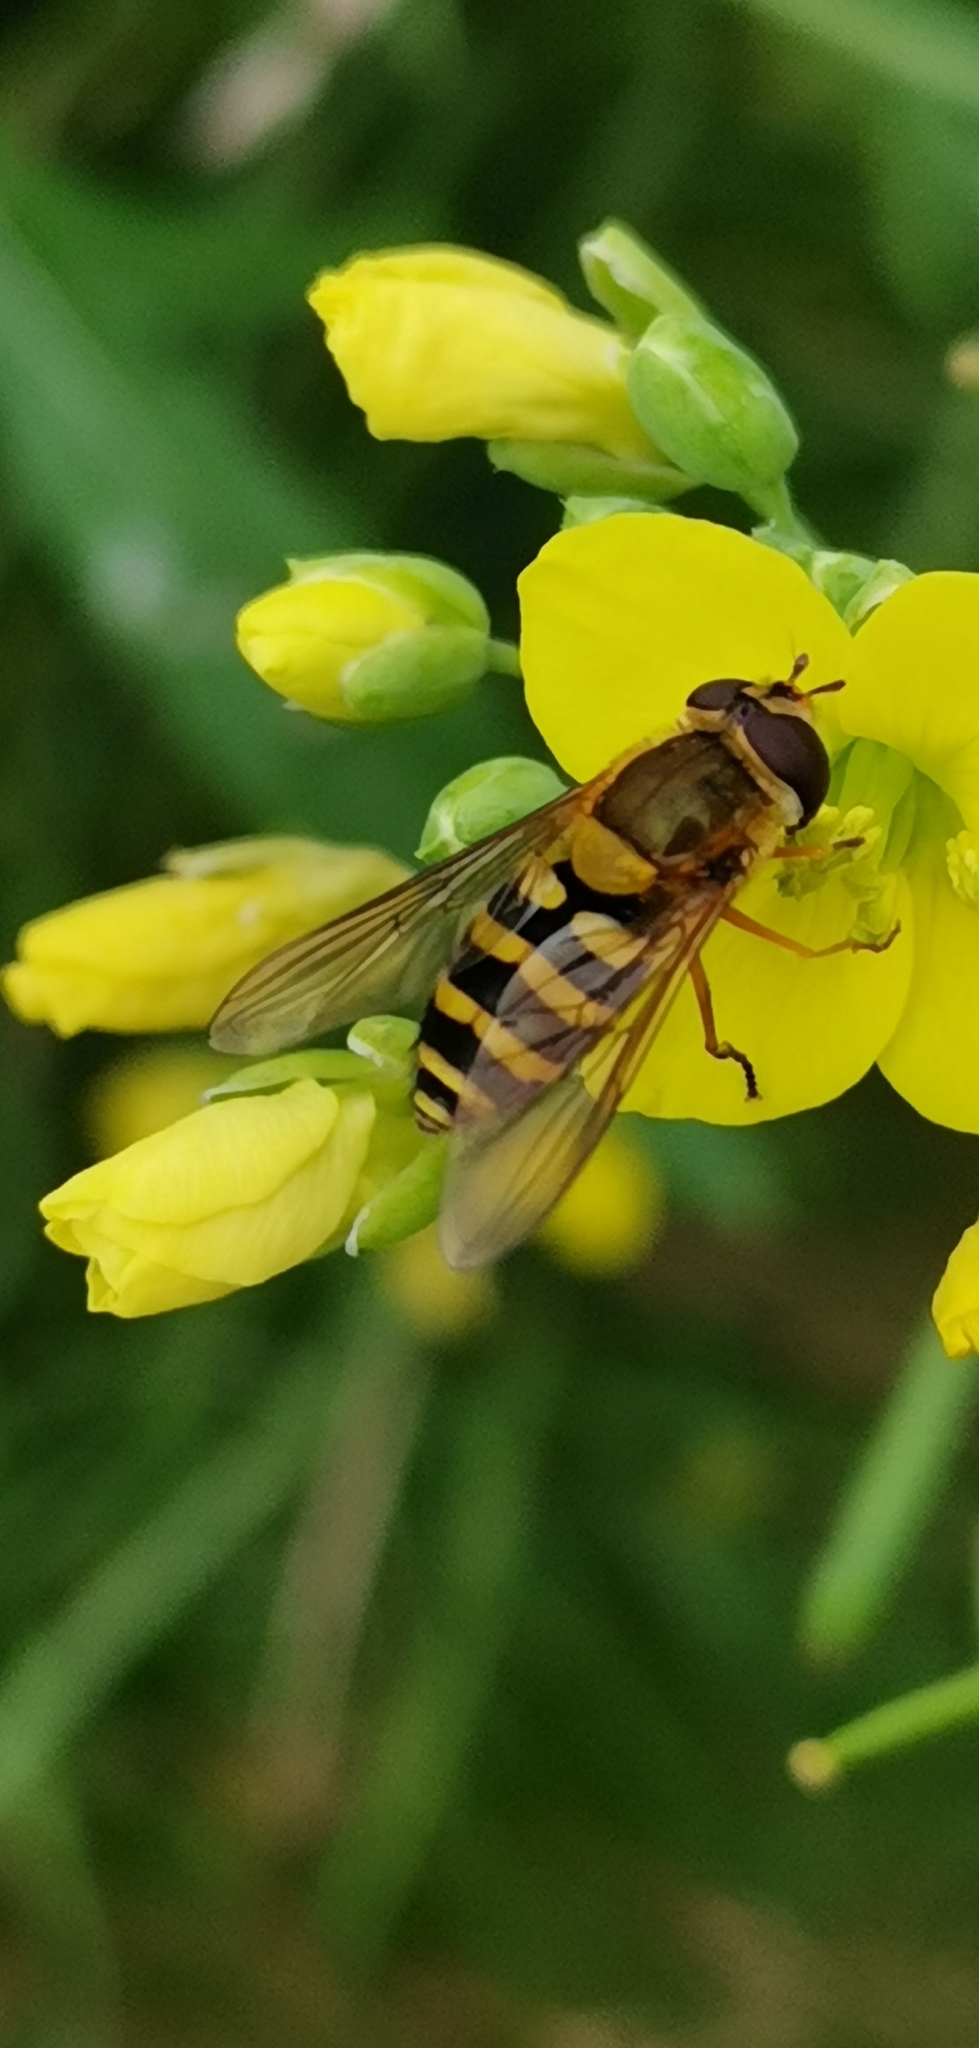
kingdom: Animalia
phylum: Arthropoda
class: Insecta
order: Diptera
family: Syrphidae
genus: Syrphus
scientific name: Syrphus ribesii
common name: Common flower fly
